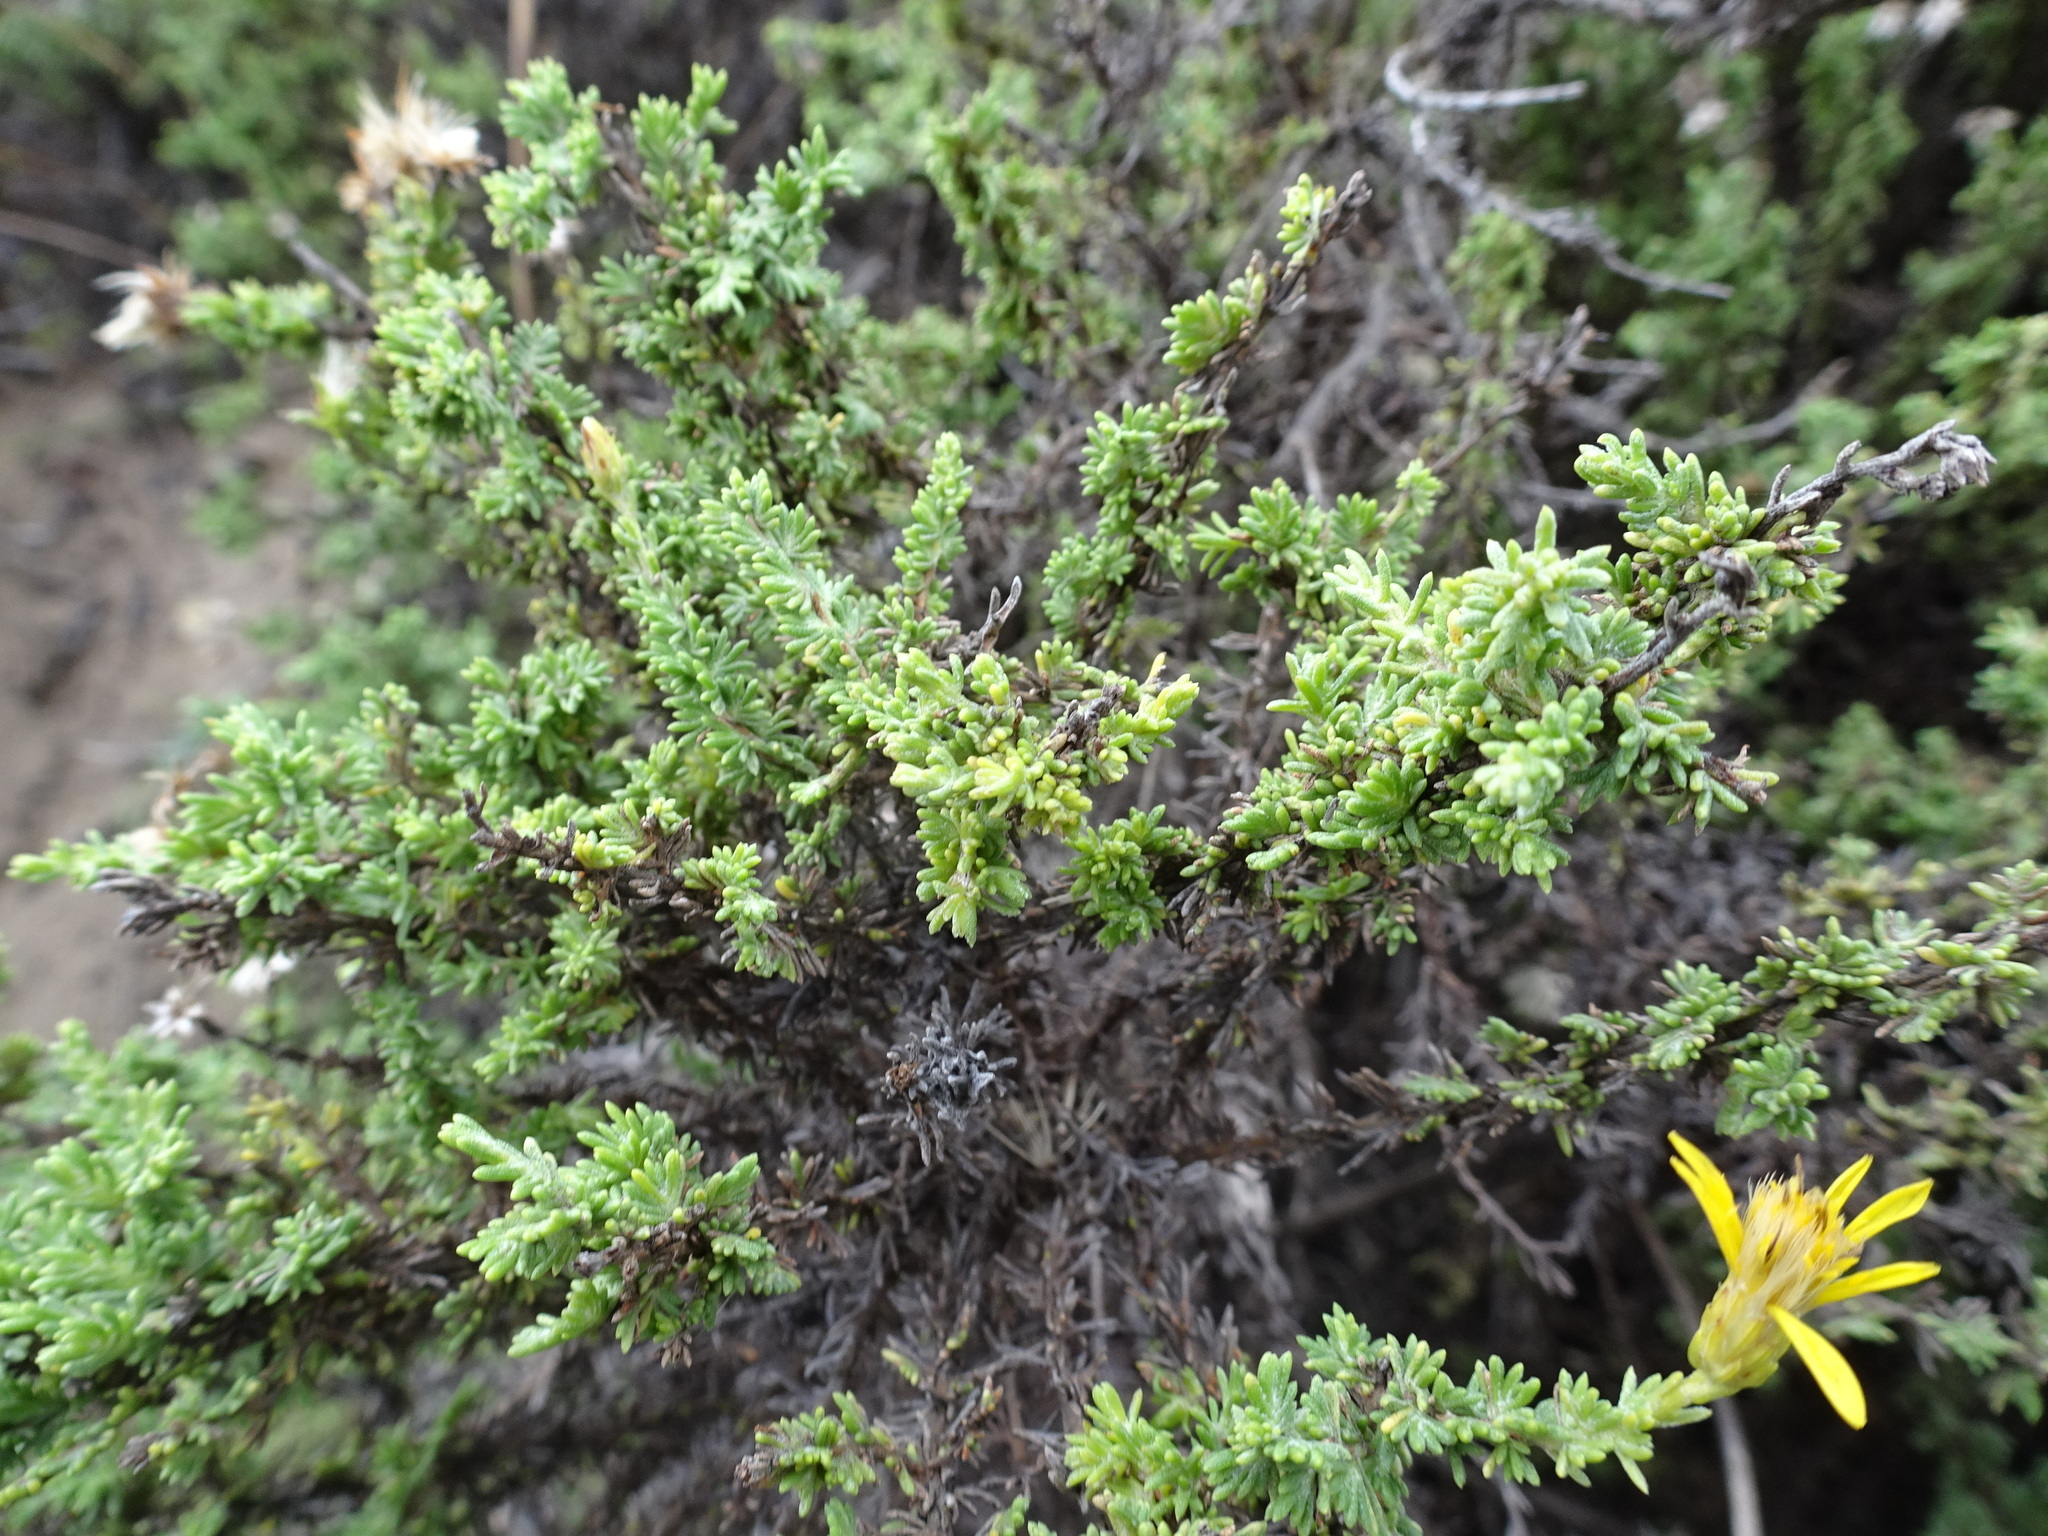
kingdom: Plantae
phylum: Tracheophyta
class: Magnoliopsida
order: Asterales
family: Asteraceae
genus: Ericameria
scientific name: Ericameria ericoides
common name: California goldenbush
